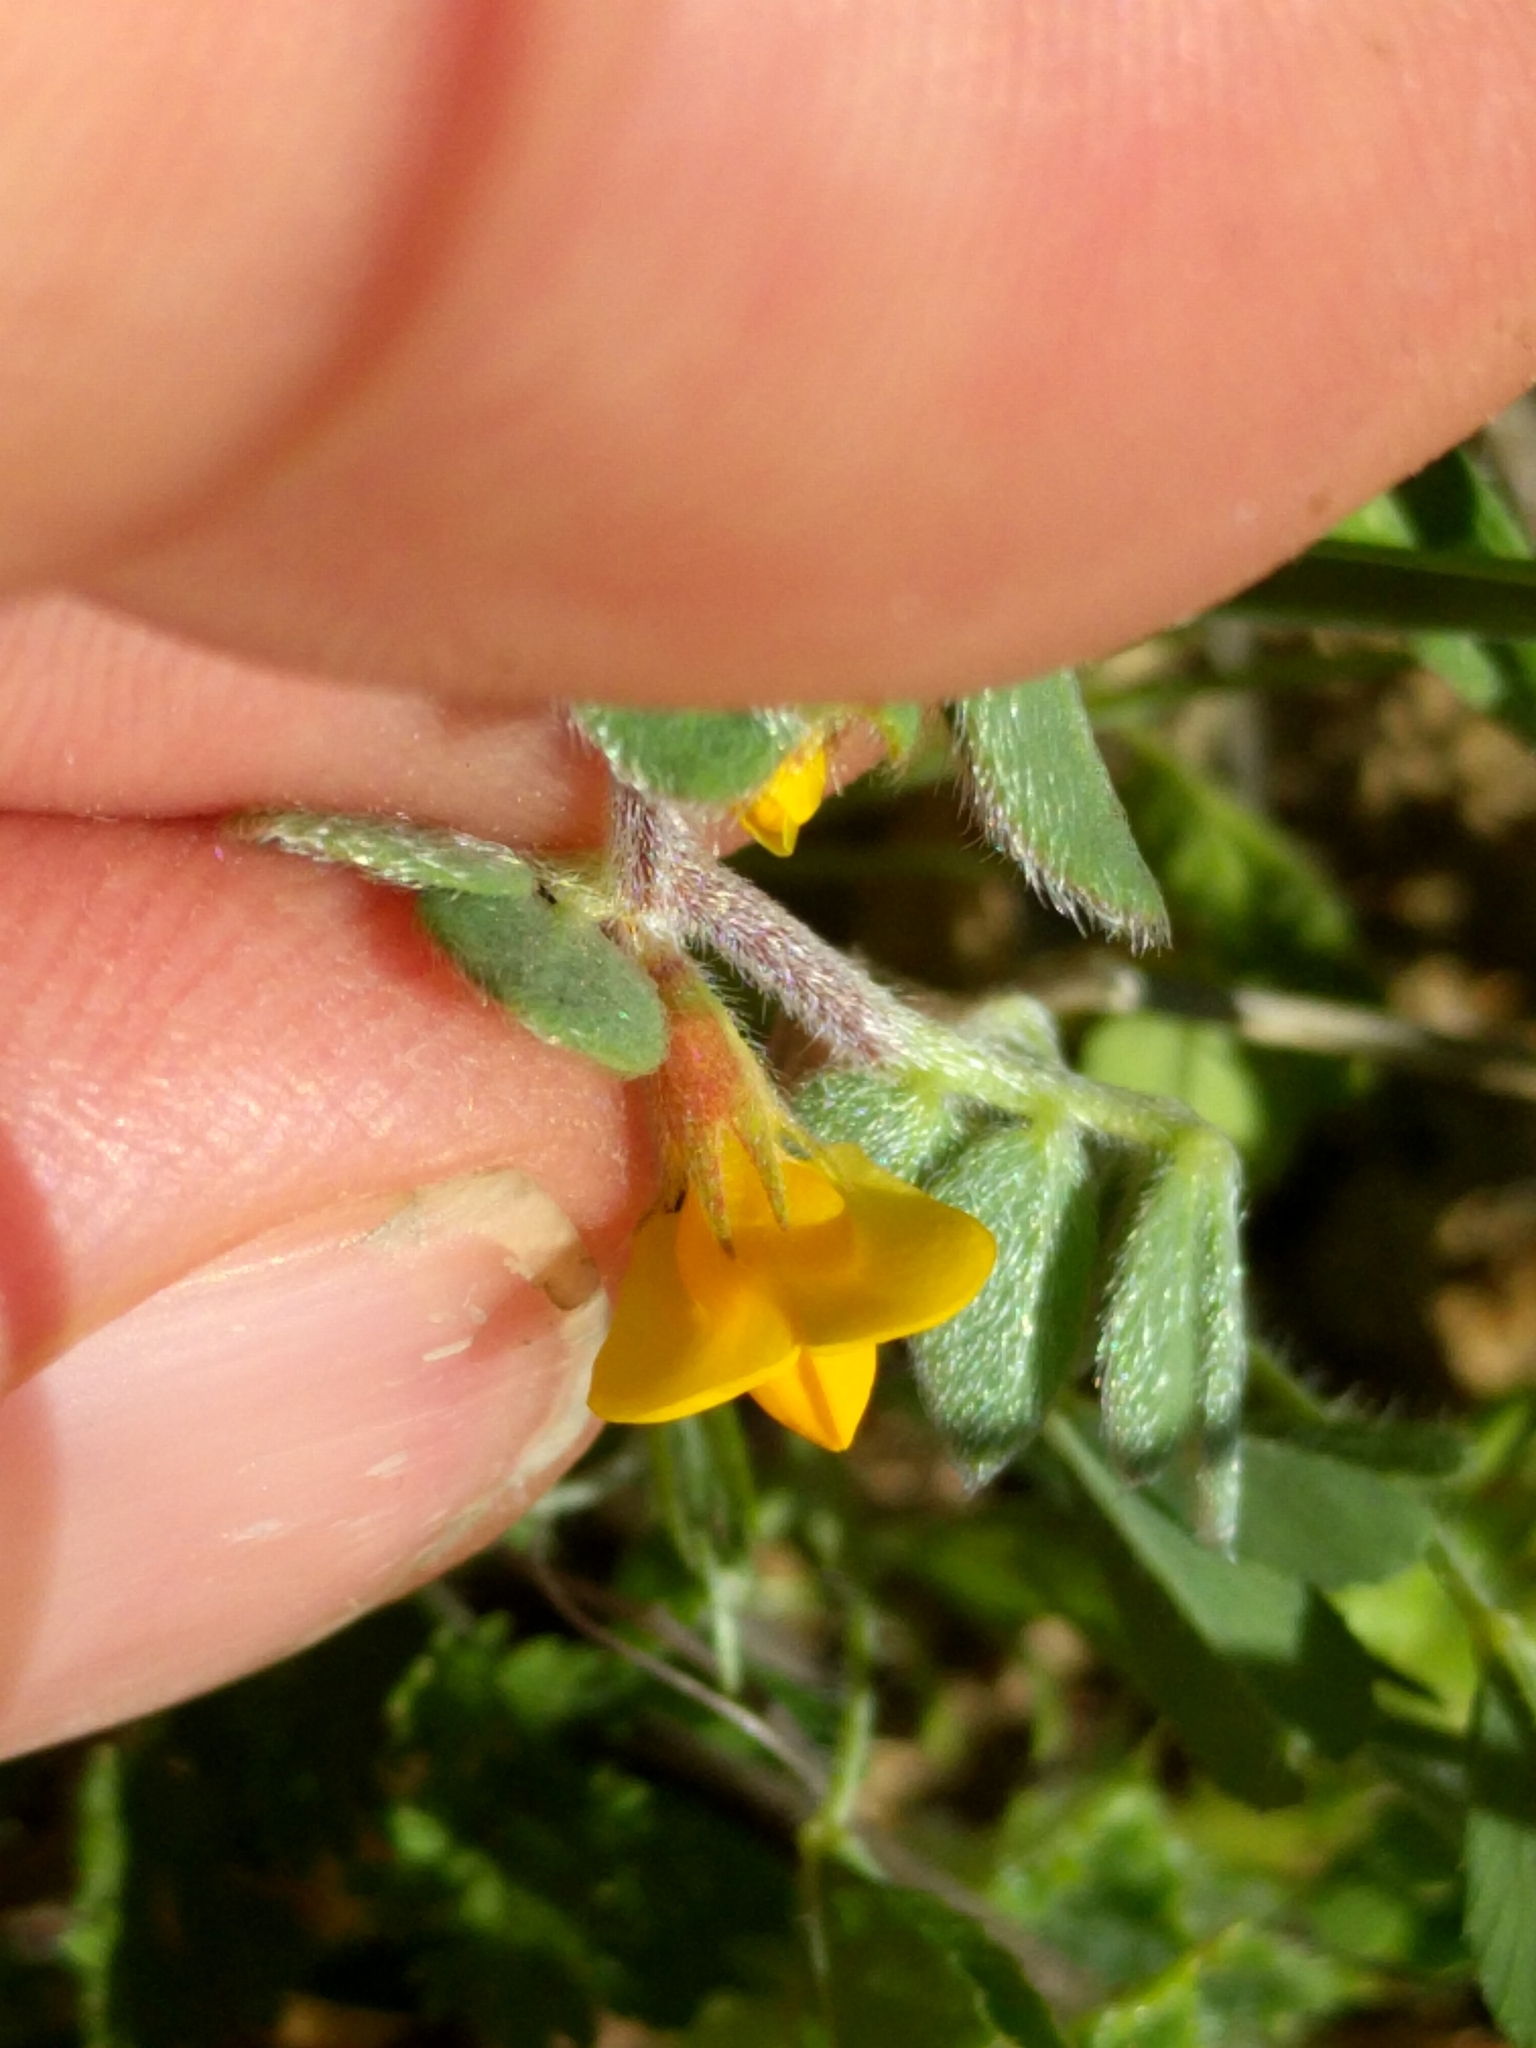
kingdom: Plantae
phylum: Tracheophyta
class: Magnoliopsida
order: Fabales
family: Fabaceae
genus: Acmispon
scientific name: Acmispon wrangelianus
